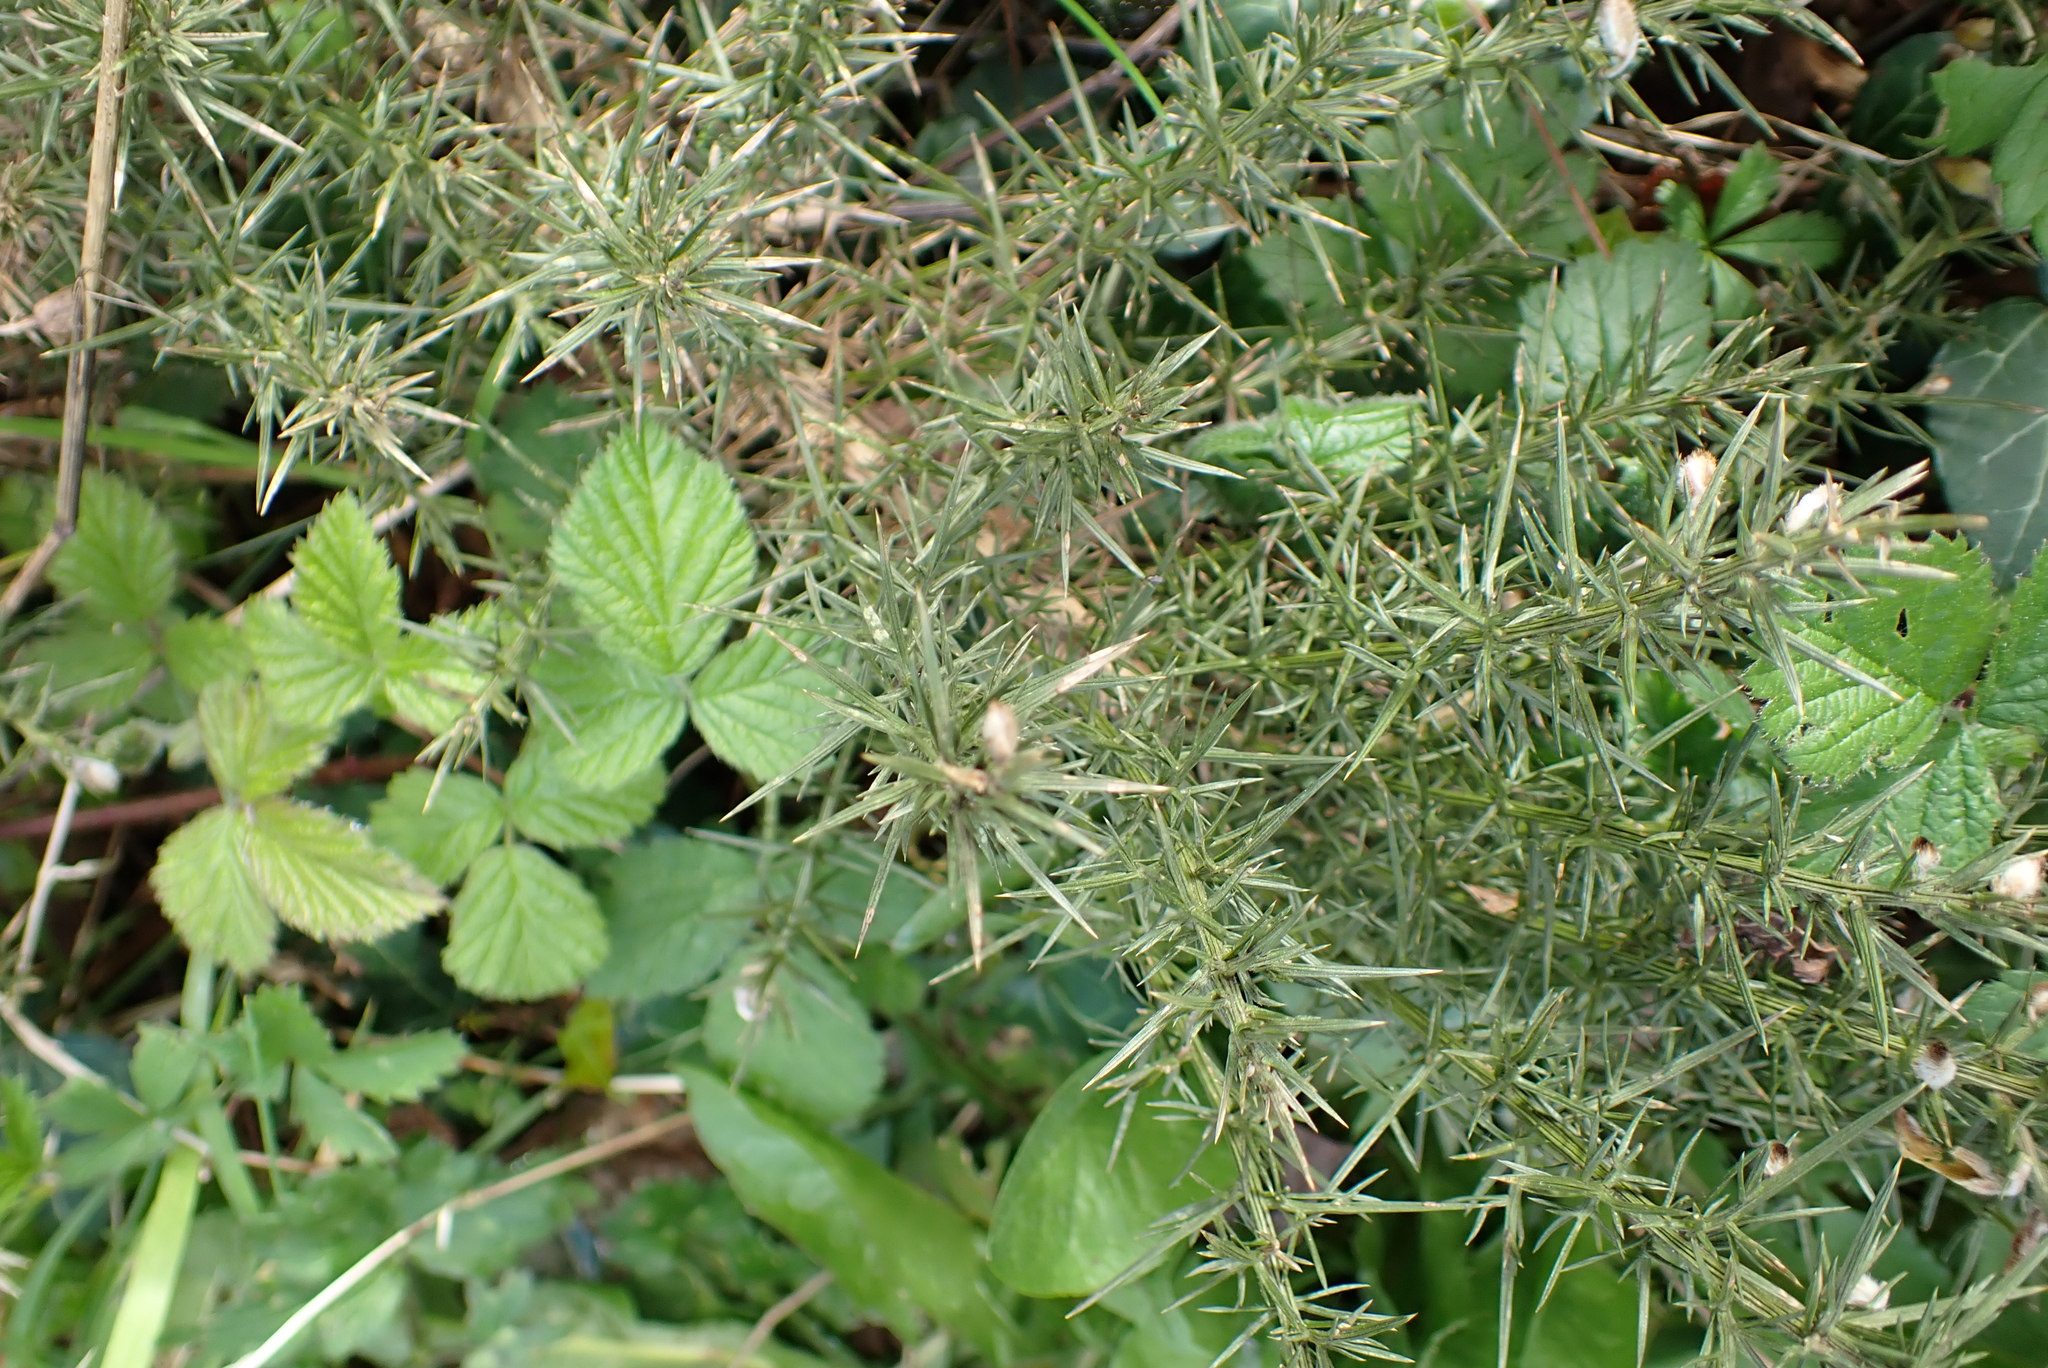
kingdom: Plantae
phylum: Tracheophyta
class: Magnoliopsida
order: Fabales
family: Fabaceae
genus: Ulex
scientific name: Ulex europaeus
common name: Common gorse
